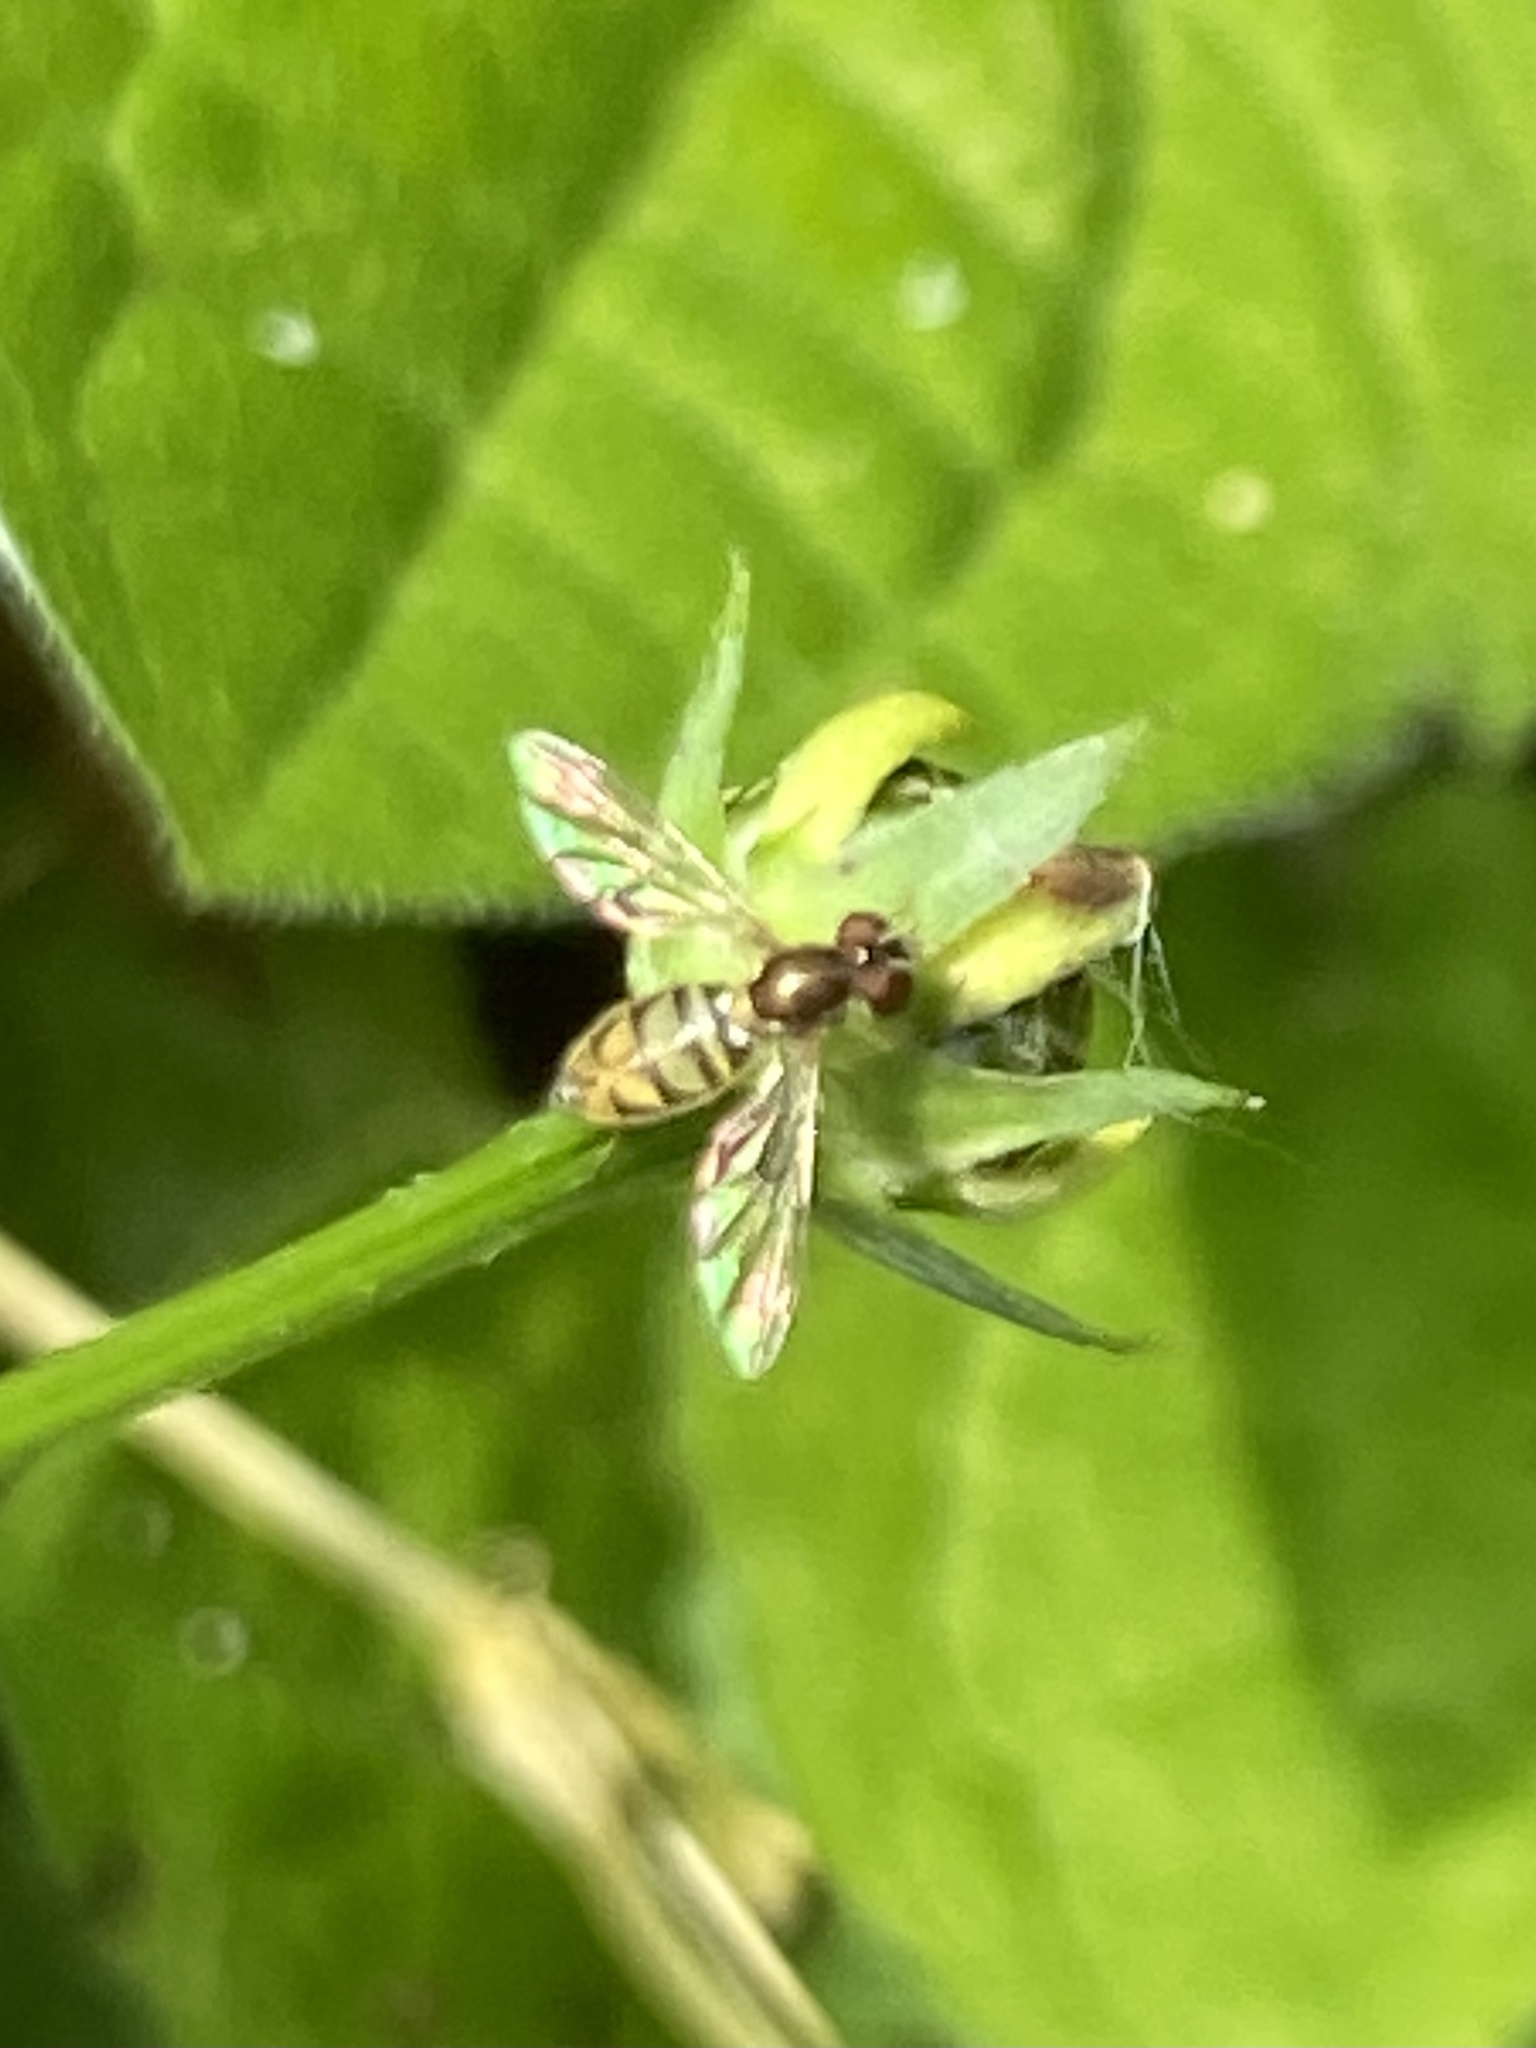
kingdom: Animalia
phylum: Arthropoda
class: Insecta
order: Diptera
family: Syrphidae
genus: Toxomerus
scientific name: Toxomerus marginatus
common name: Syrphid fly
